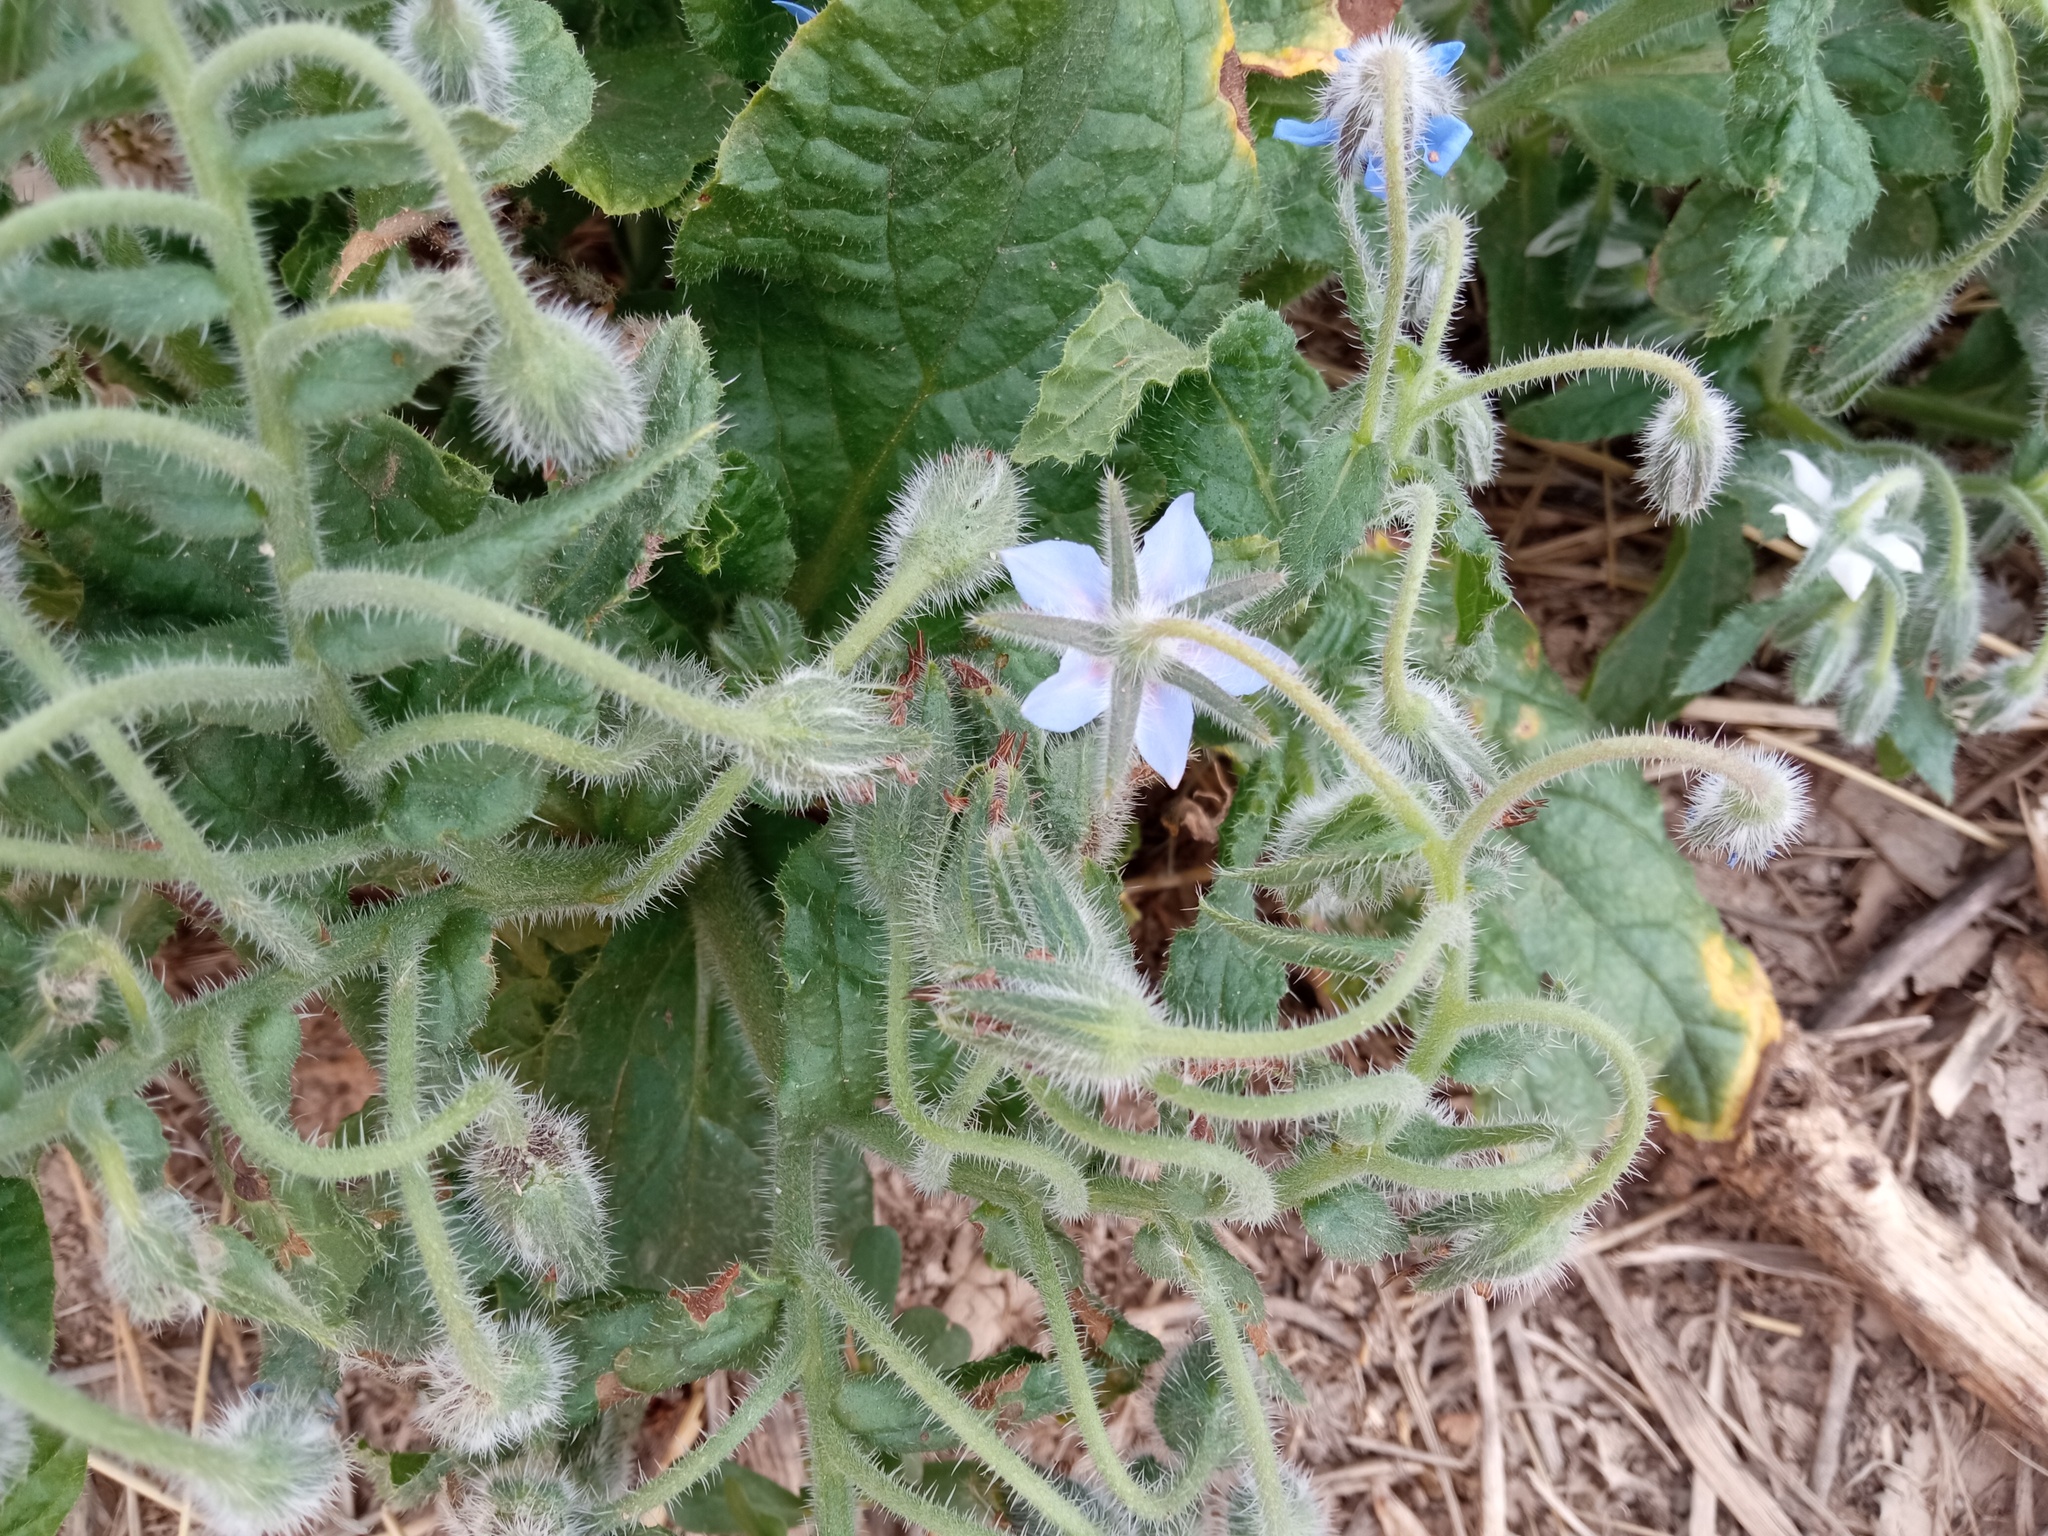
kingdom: Plantae
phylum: Tracheophyta
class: Magnoliopsida
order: Boraginales
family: Boraginaceae
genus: Borago
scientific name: Borago officinalis
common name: Borage
